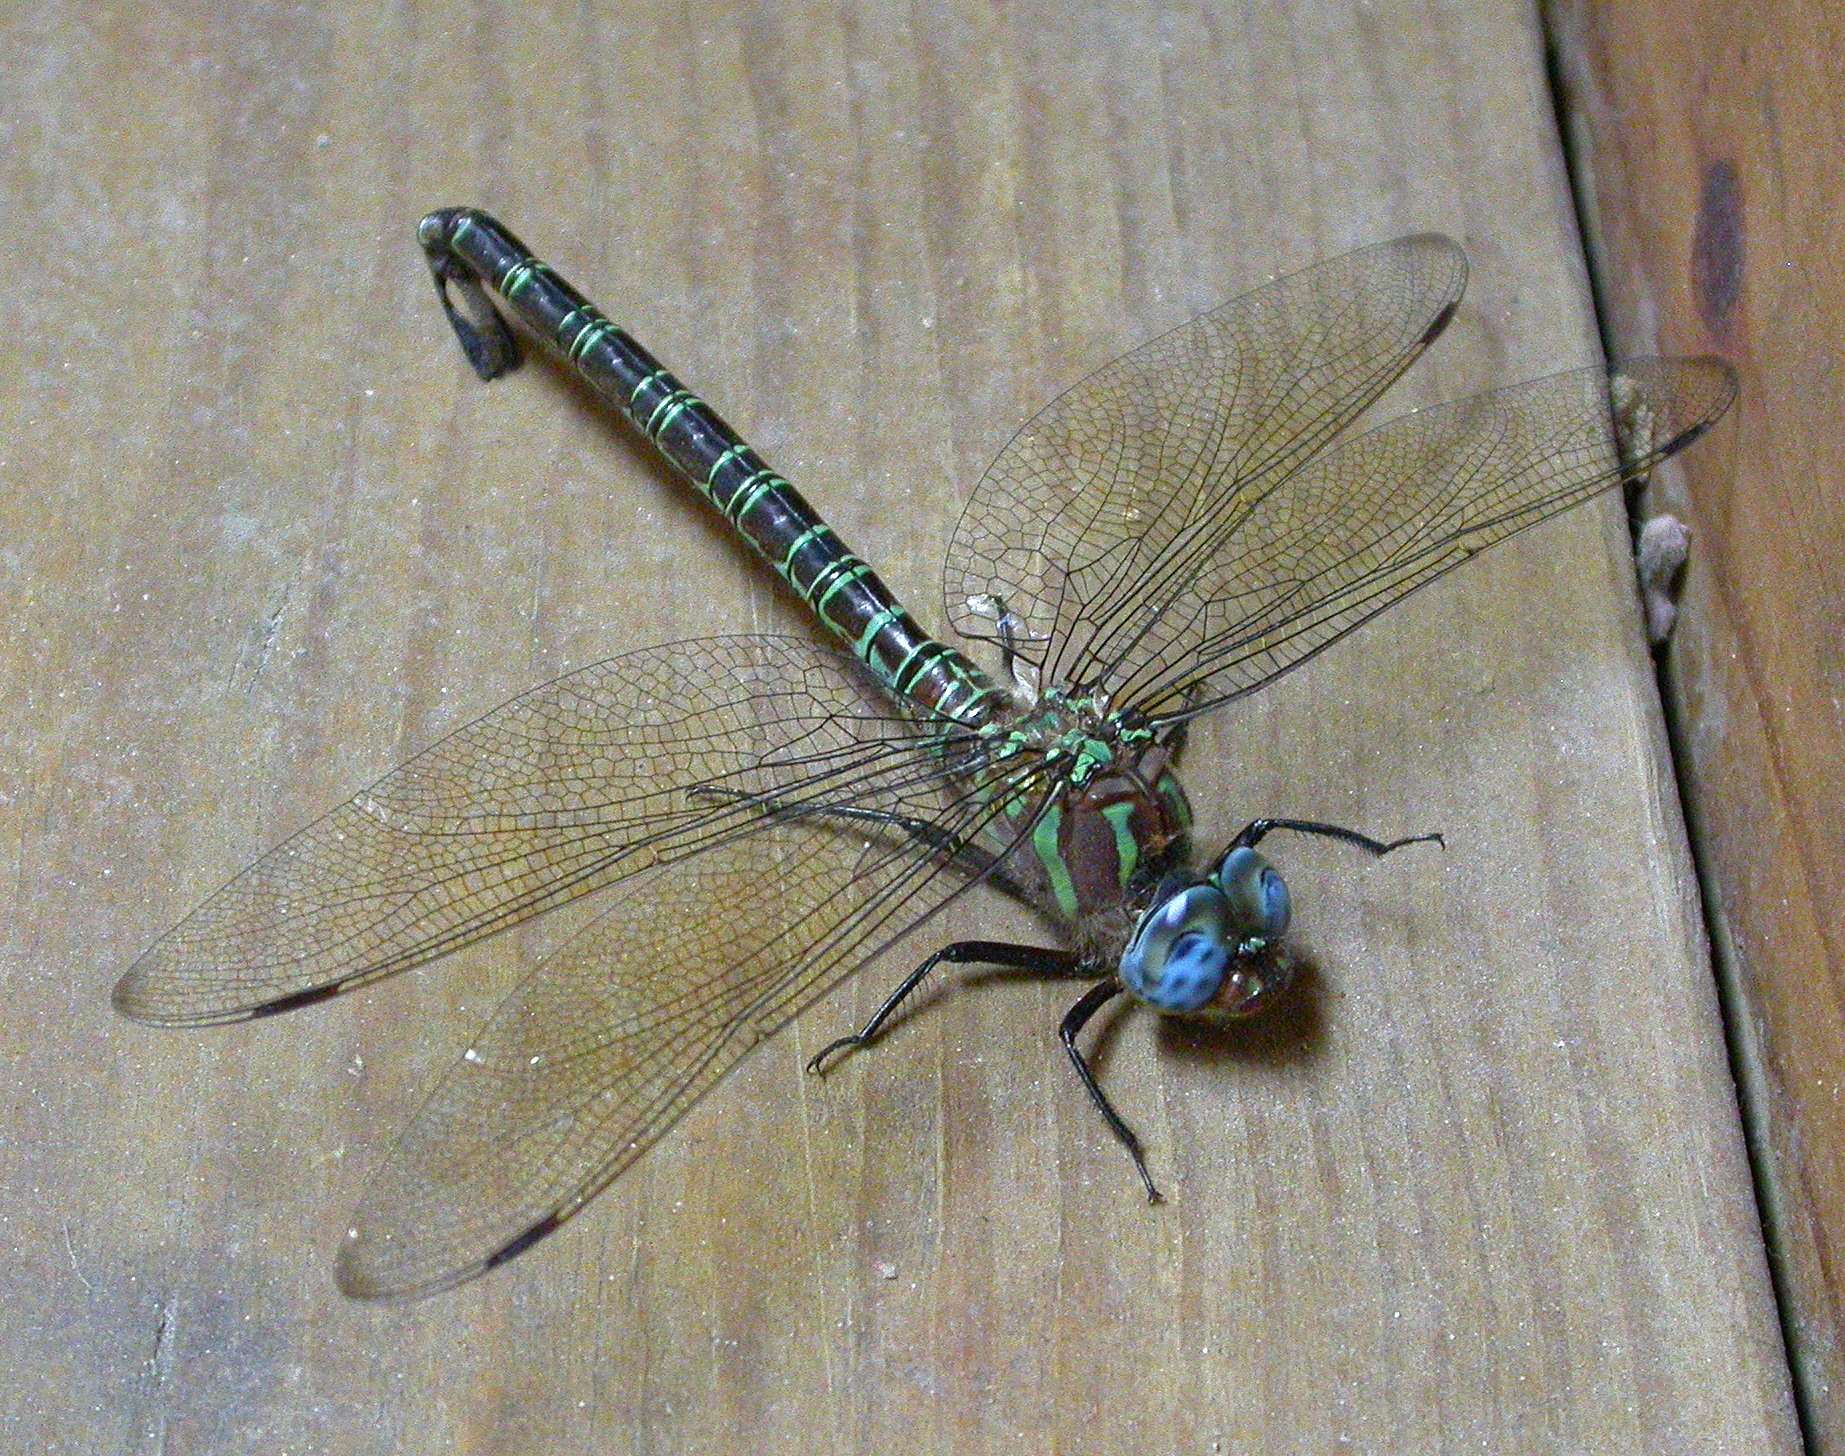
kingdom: Animalia
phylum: Arthropoda
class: Insecta
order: Odonata
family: Aeshnidae
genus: Epiaeschna
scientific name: Epiaeschna heros
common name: Swamp darner
